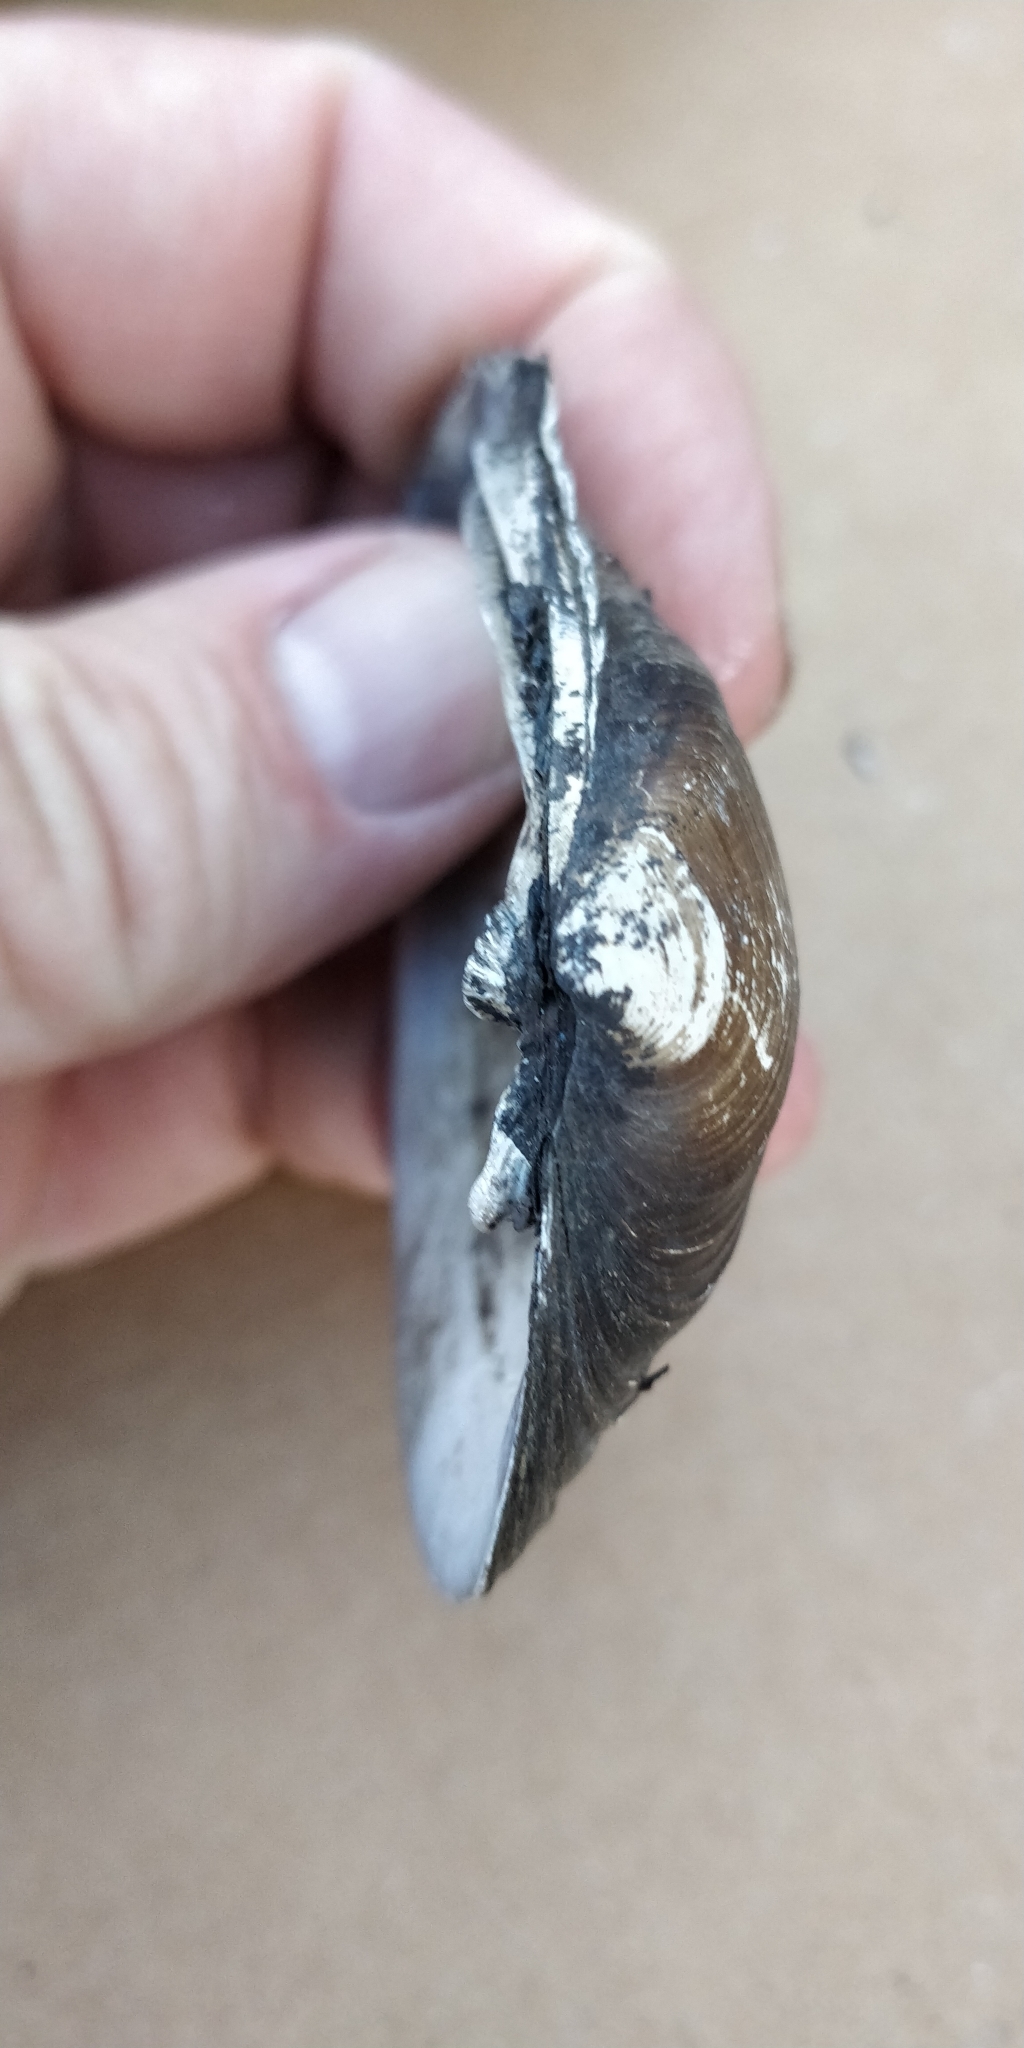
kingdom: Animalia
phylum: Mollusca
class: Bivalvia
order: Unionida
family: Unionidae
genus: Fusconaia
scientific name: Fusconaia flava
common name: Wabash pigtoe
